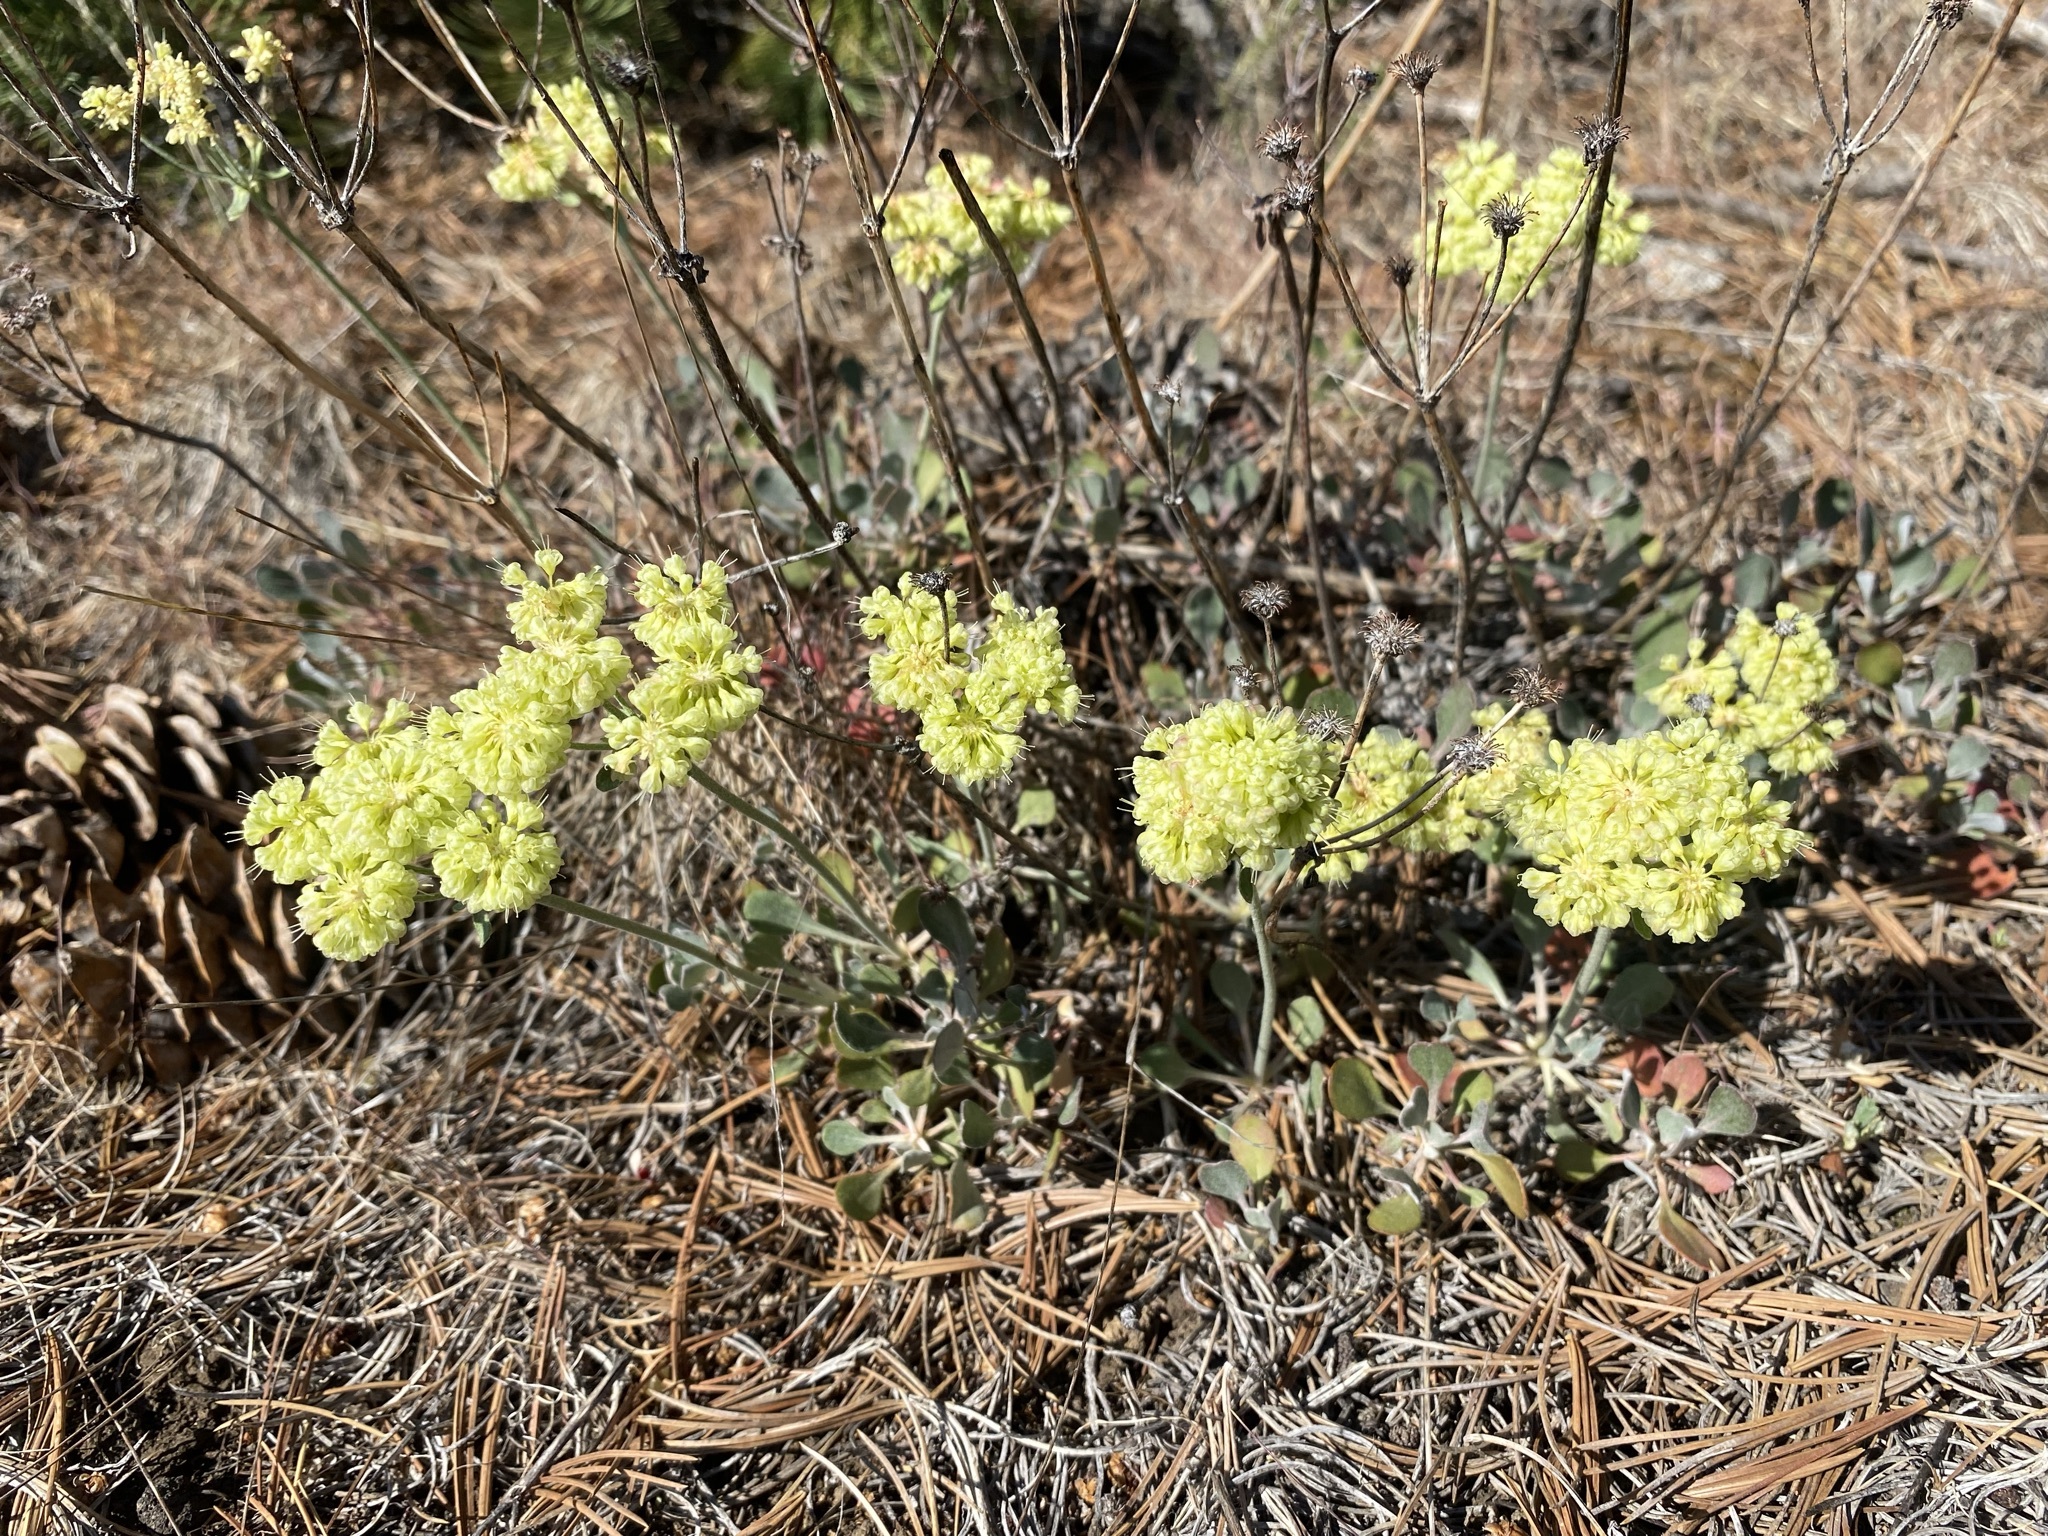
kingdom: Plantae
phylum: Tracheophyta
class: Magnoliopsida
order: Caryophyllales
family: Polygonaceae
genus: Eriogonum
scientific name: Eriogonum umbellatum
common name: Sulfur-buckwheat
